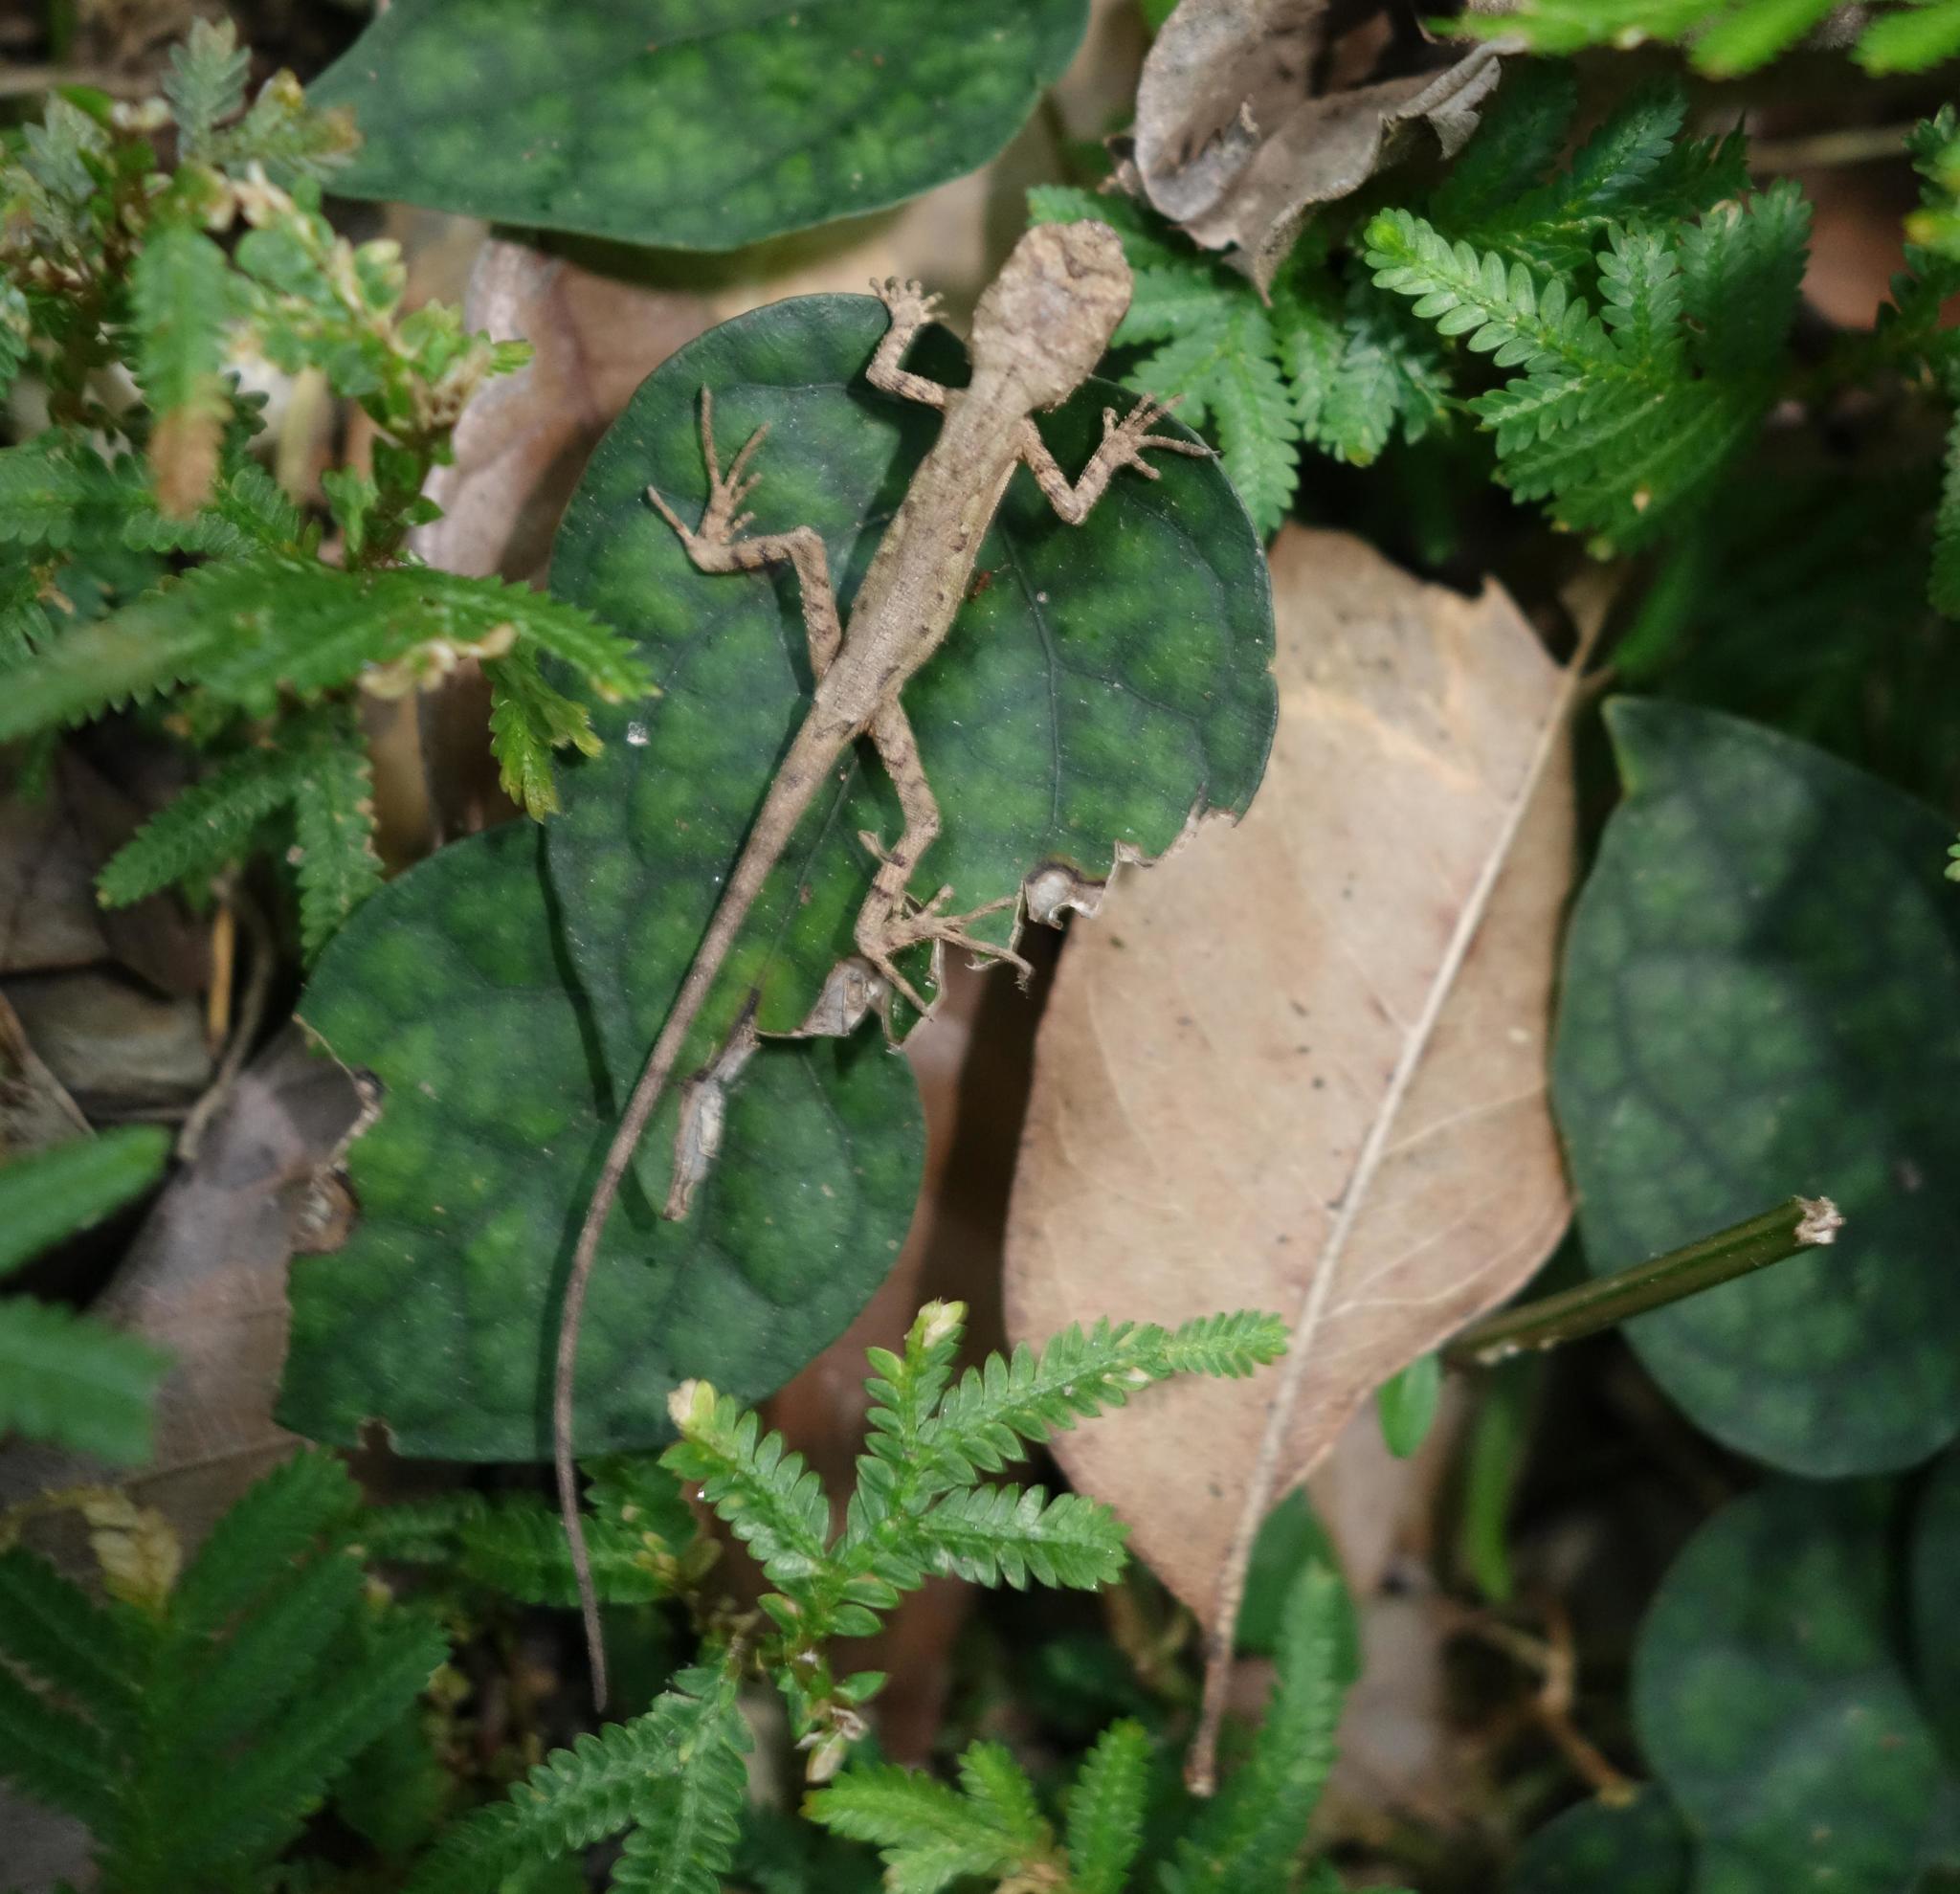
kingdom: Animalia
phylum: Chordata
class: Squamata
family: Agamidae
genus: Diploderma
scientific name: Diploderma swinhonis
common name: Taiwan japalure
